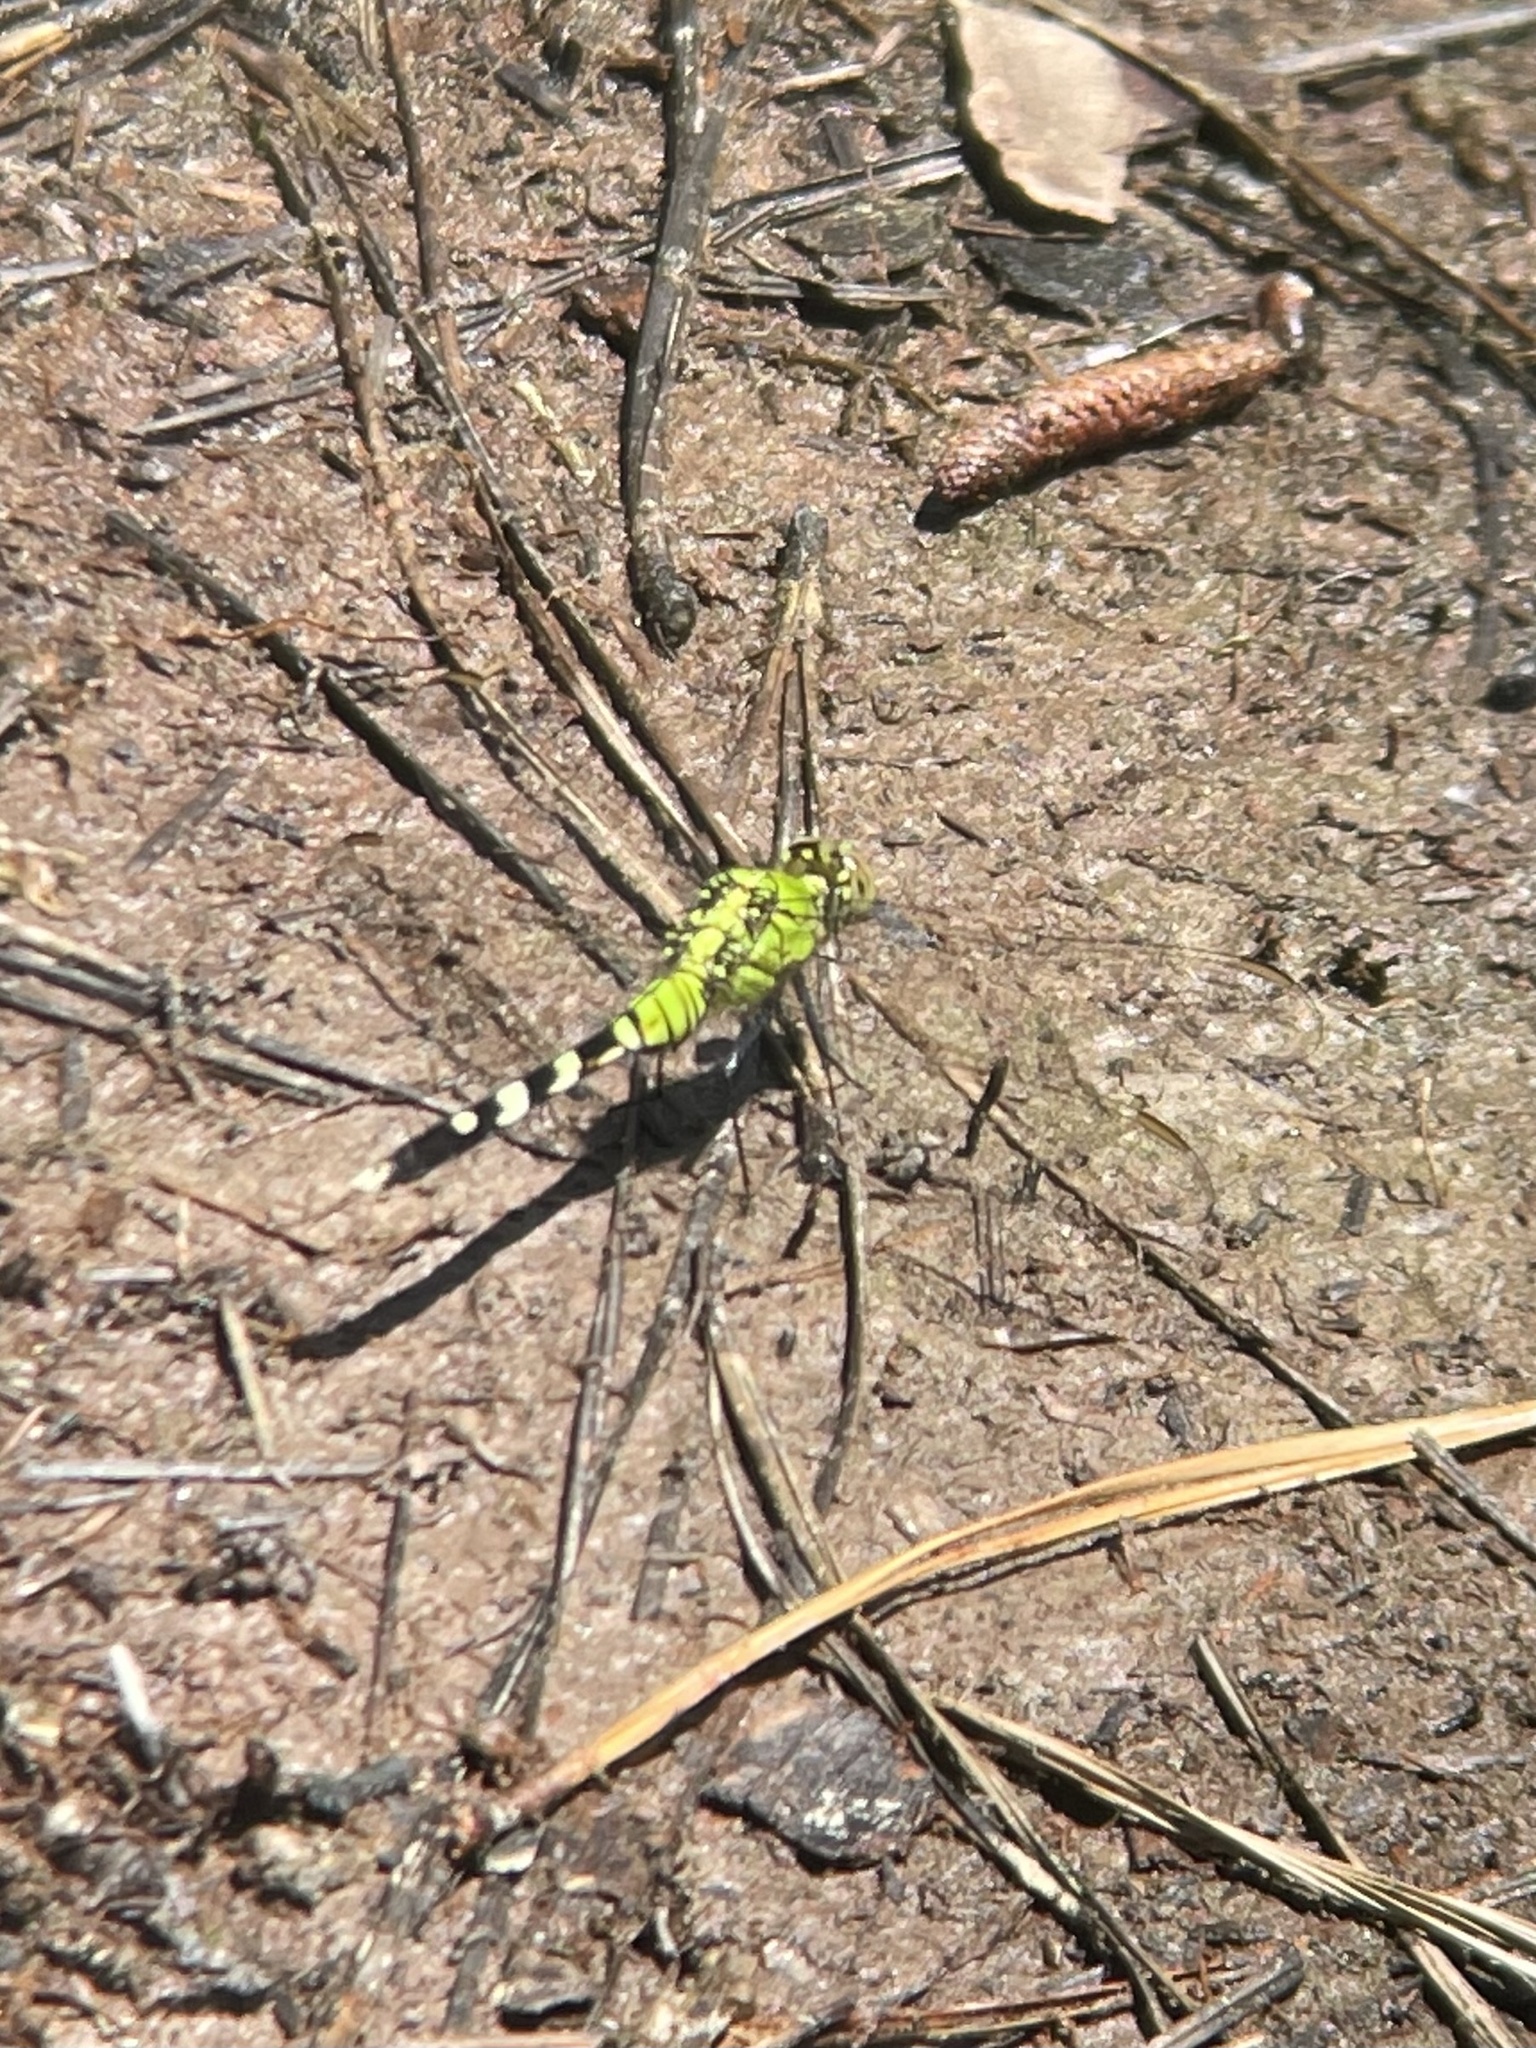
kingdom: Animalia
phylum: Arthropoda
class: Insecta
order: Odonata
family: Libellulidae
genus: Erythemis
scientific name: Erythemis simplicicollis
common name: Eastern pondhawk
